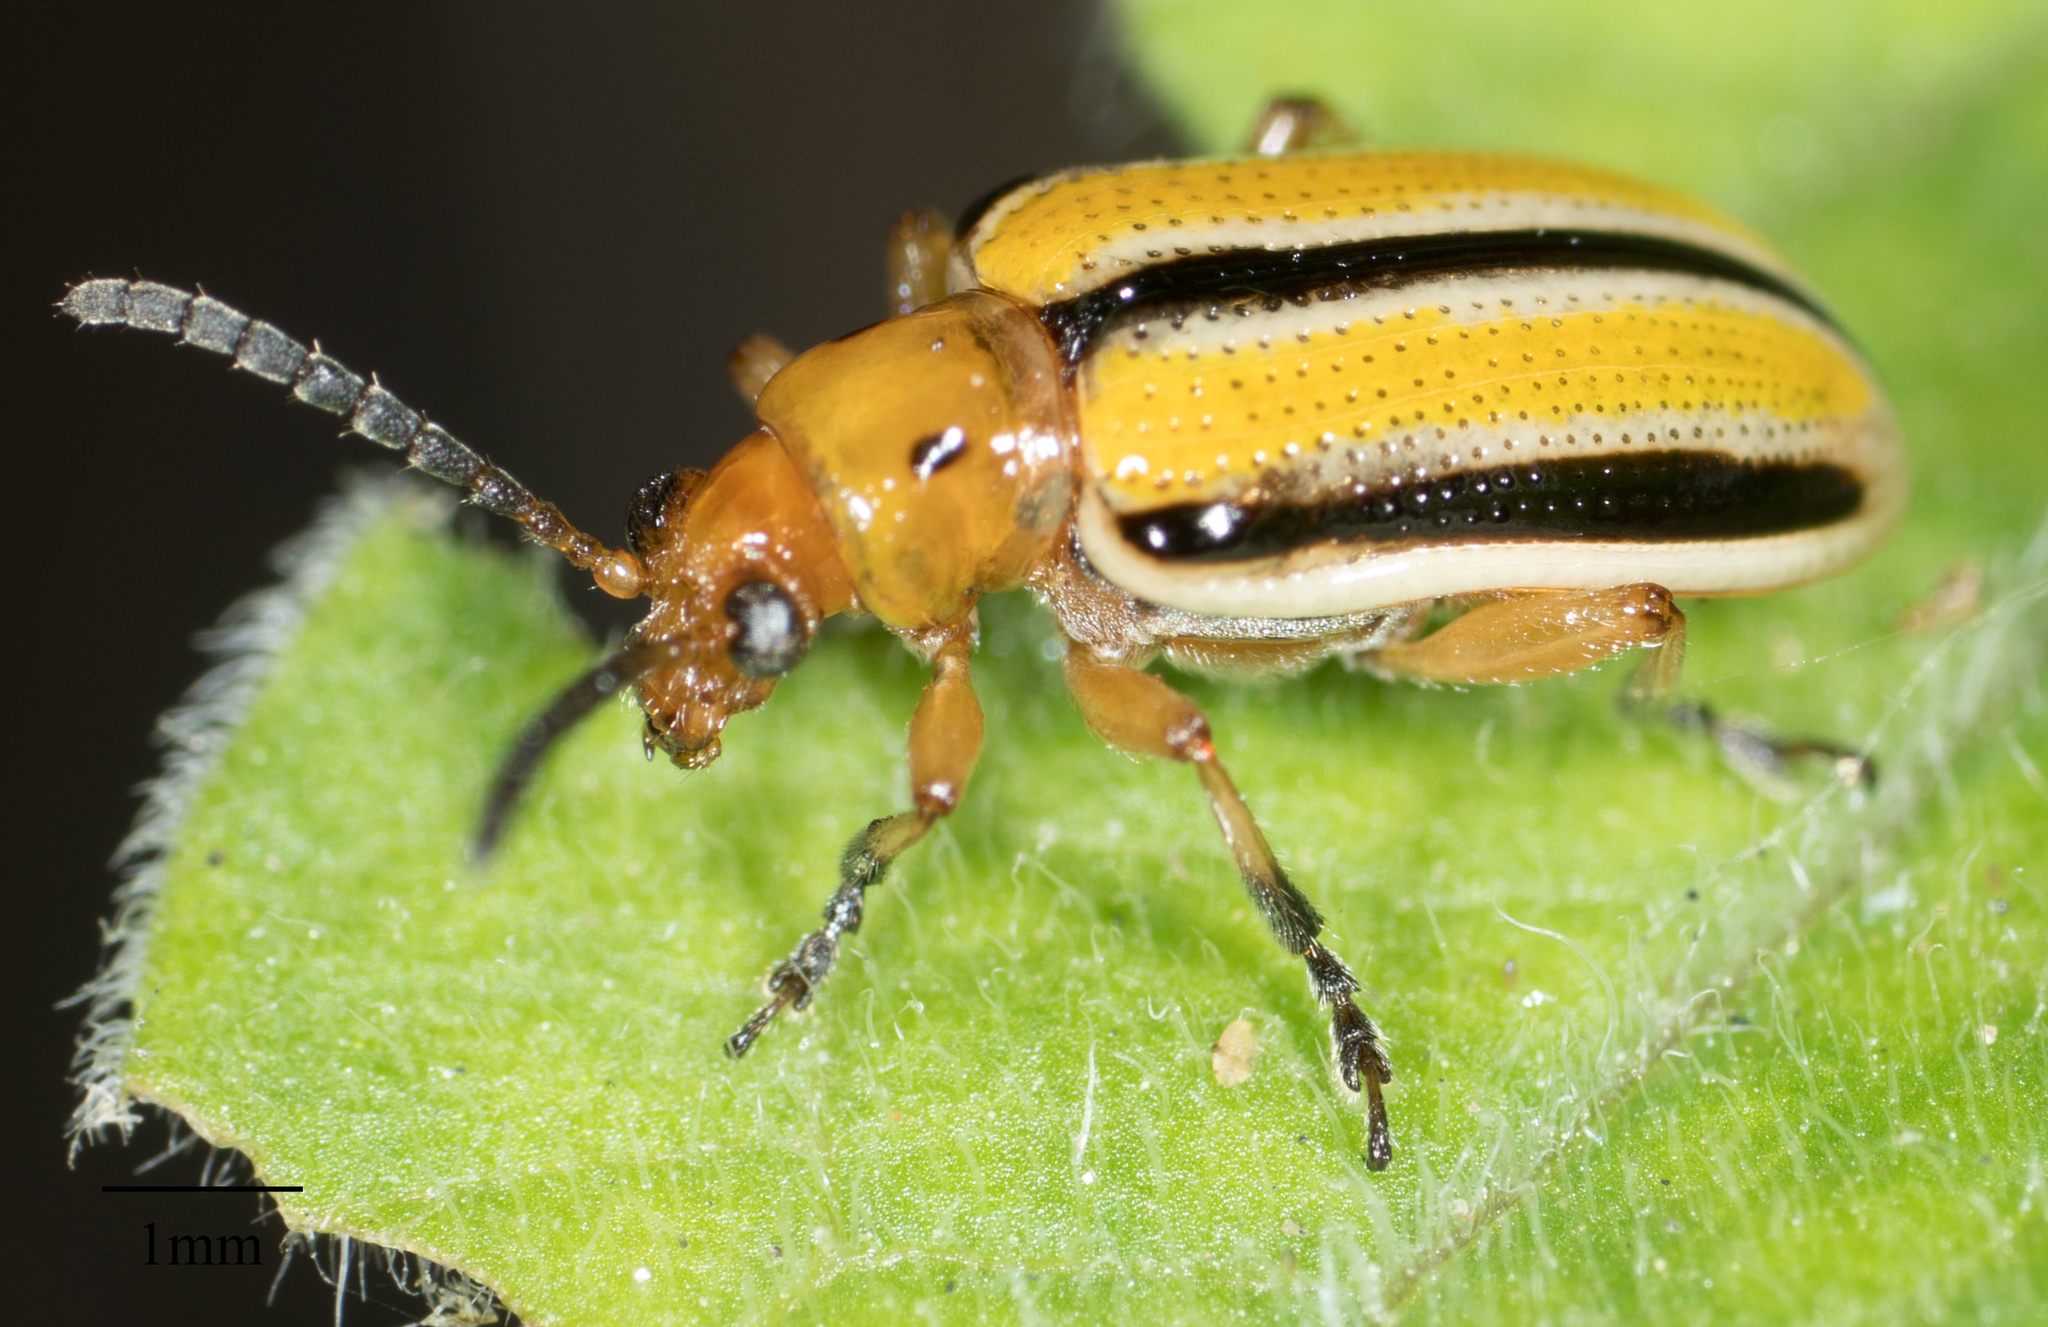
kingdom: Animalia
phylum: Arthropoda
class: Insecta
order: Coleoptera
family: Chrysomelidae
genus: Lema
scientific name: Lema daturaphila
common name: Leaf beetle
